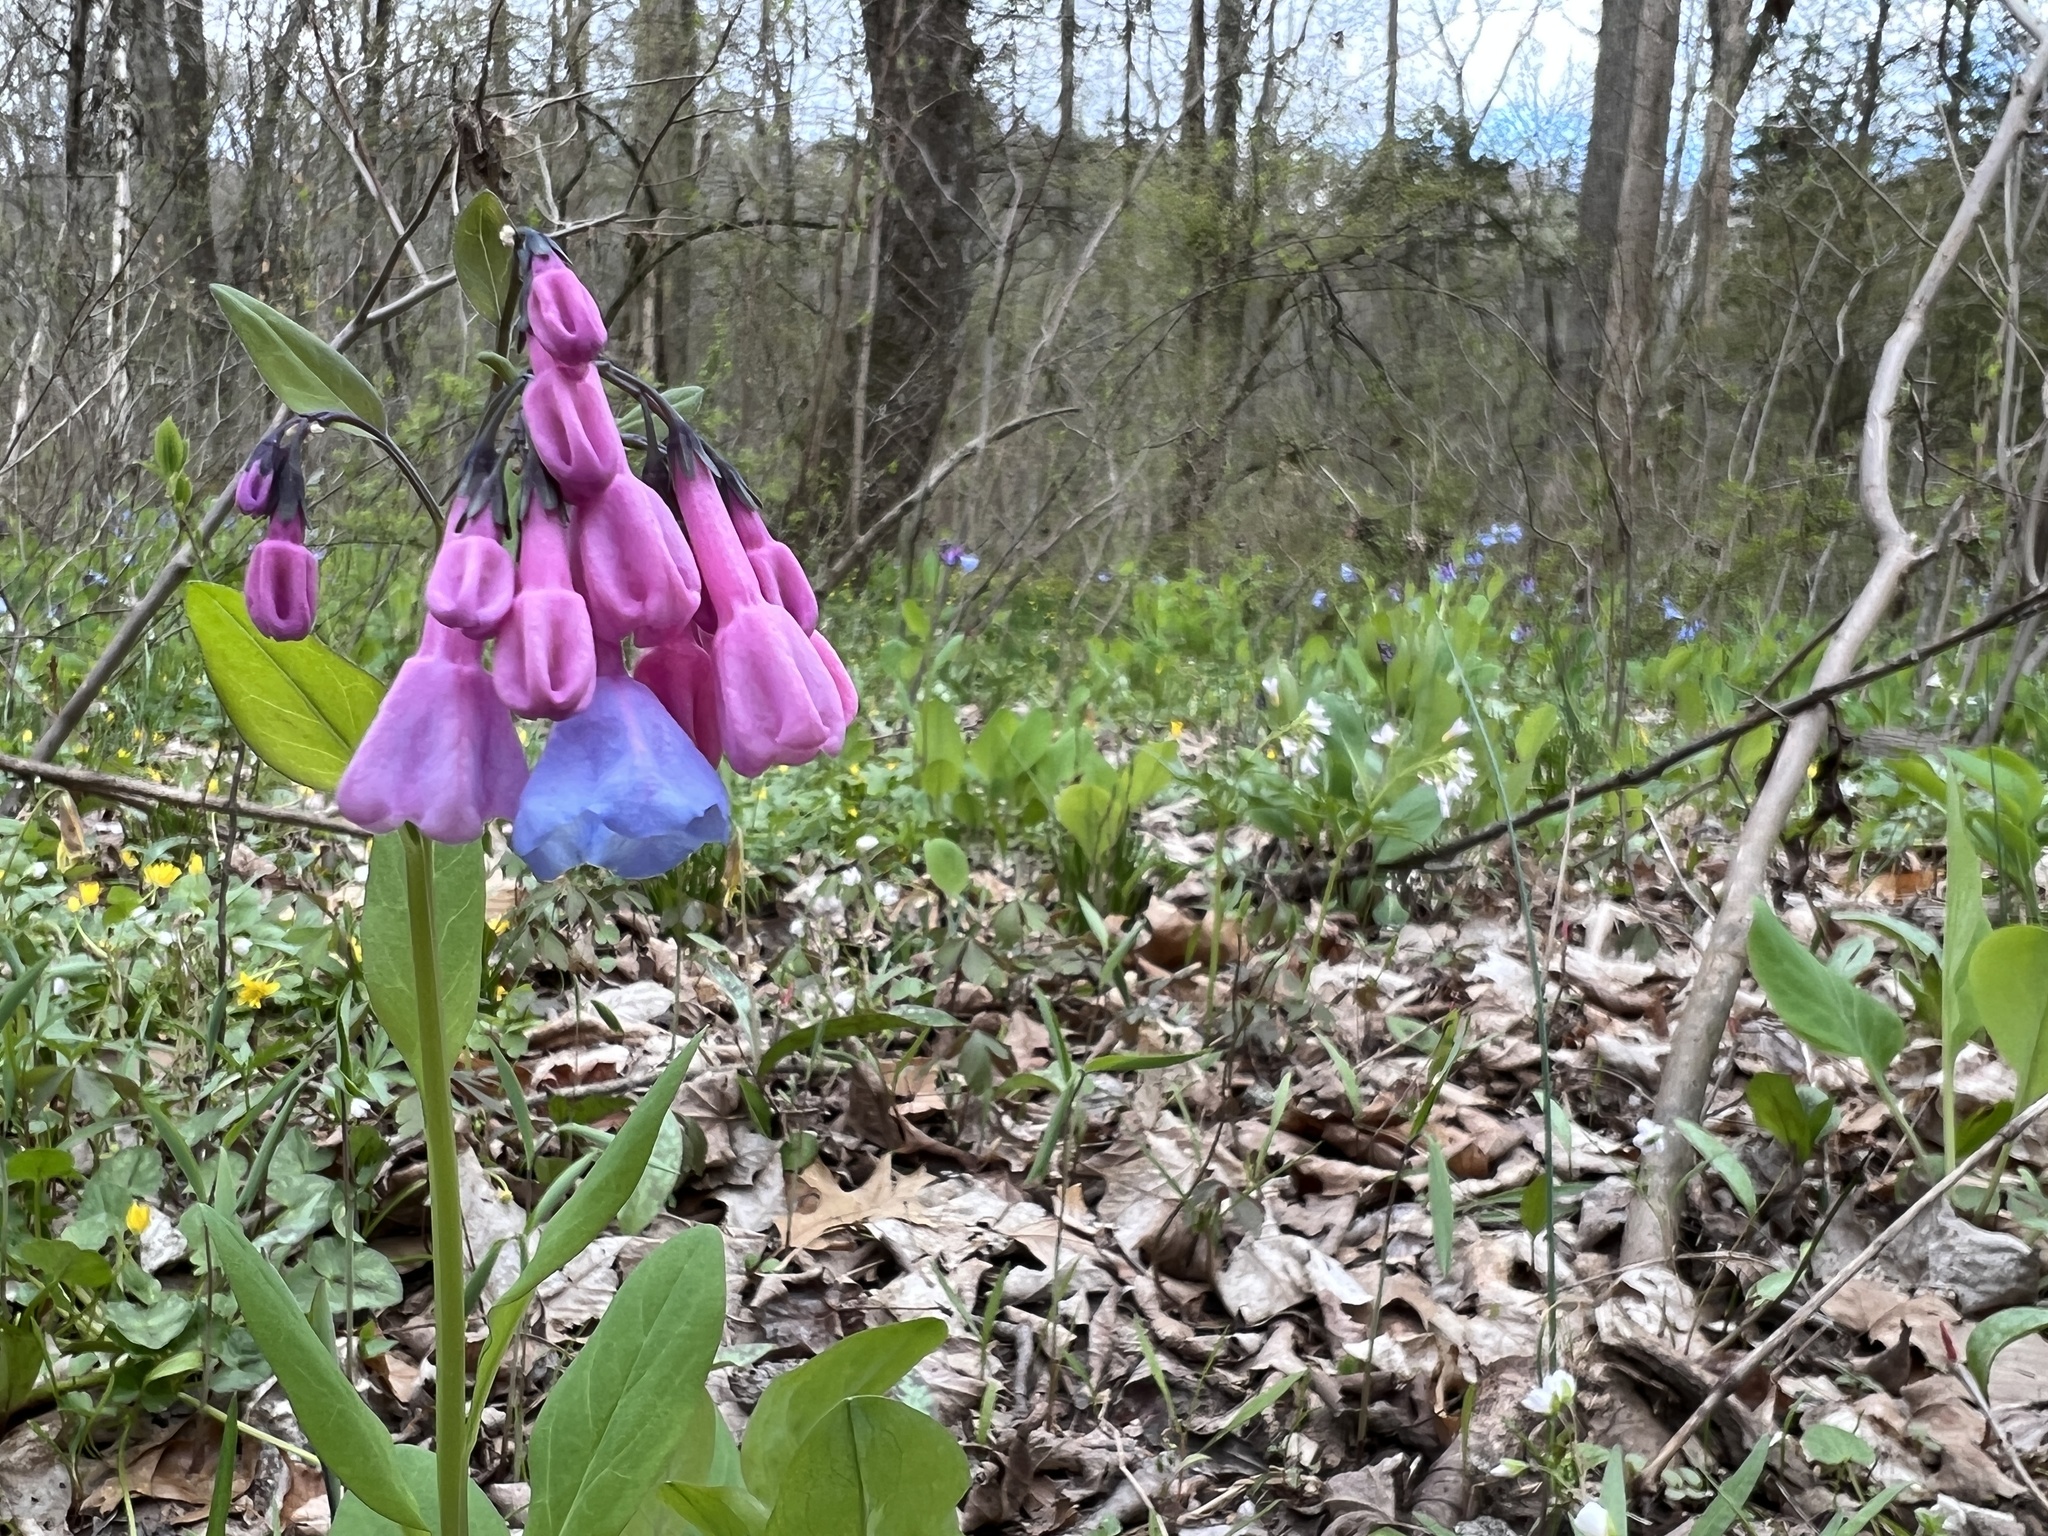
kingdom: Plantae
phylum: Tracheophyta
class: Magnoliopsida
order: Boraginales
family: Boraginaceae
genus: Mertensia
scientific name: Mertensia virginica
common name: Virginia bluebells
